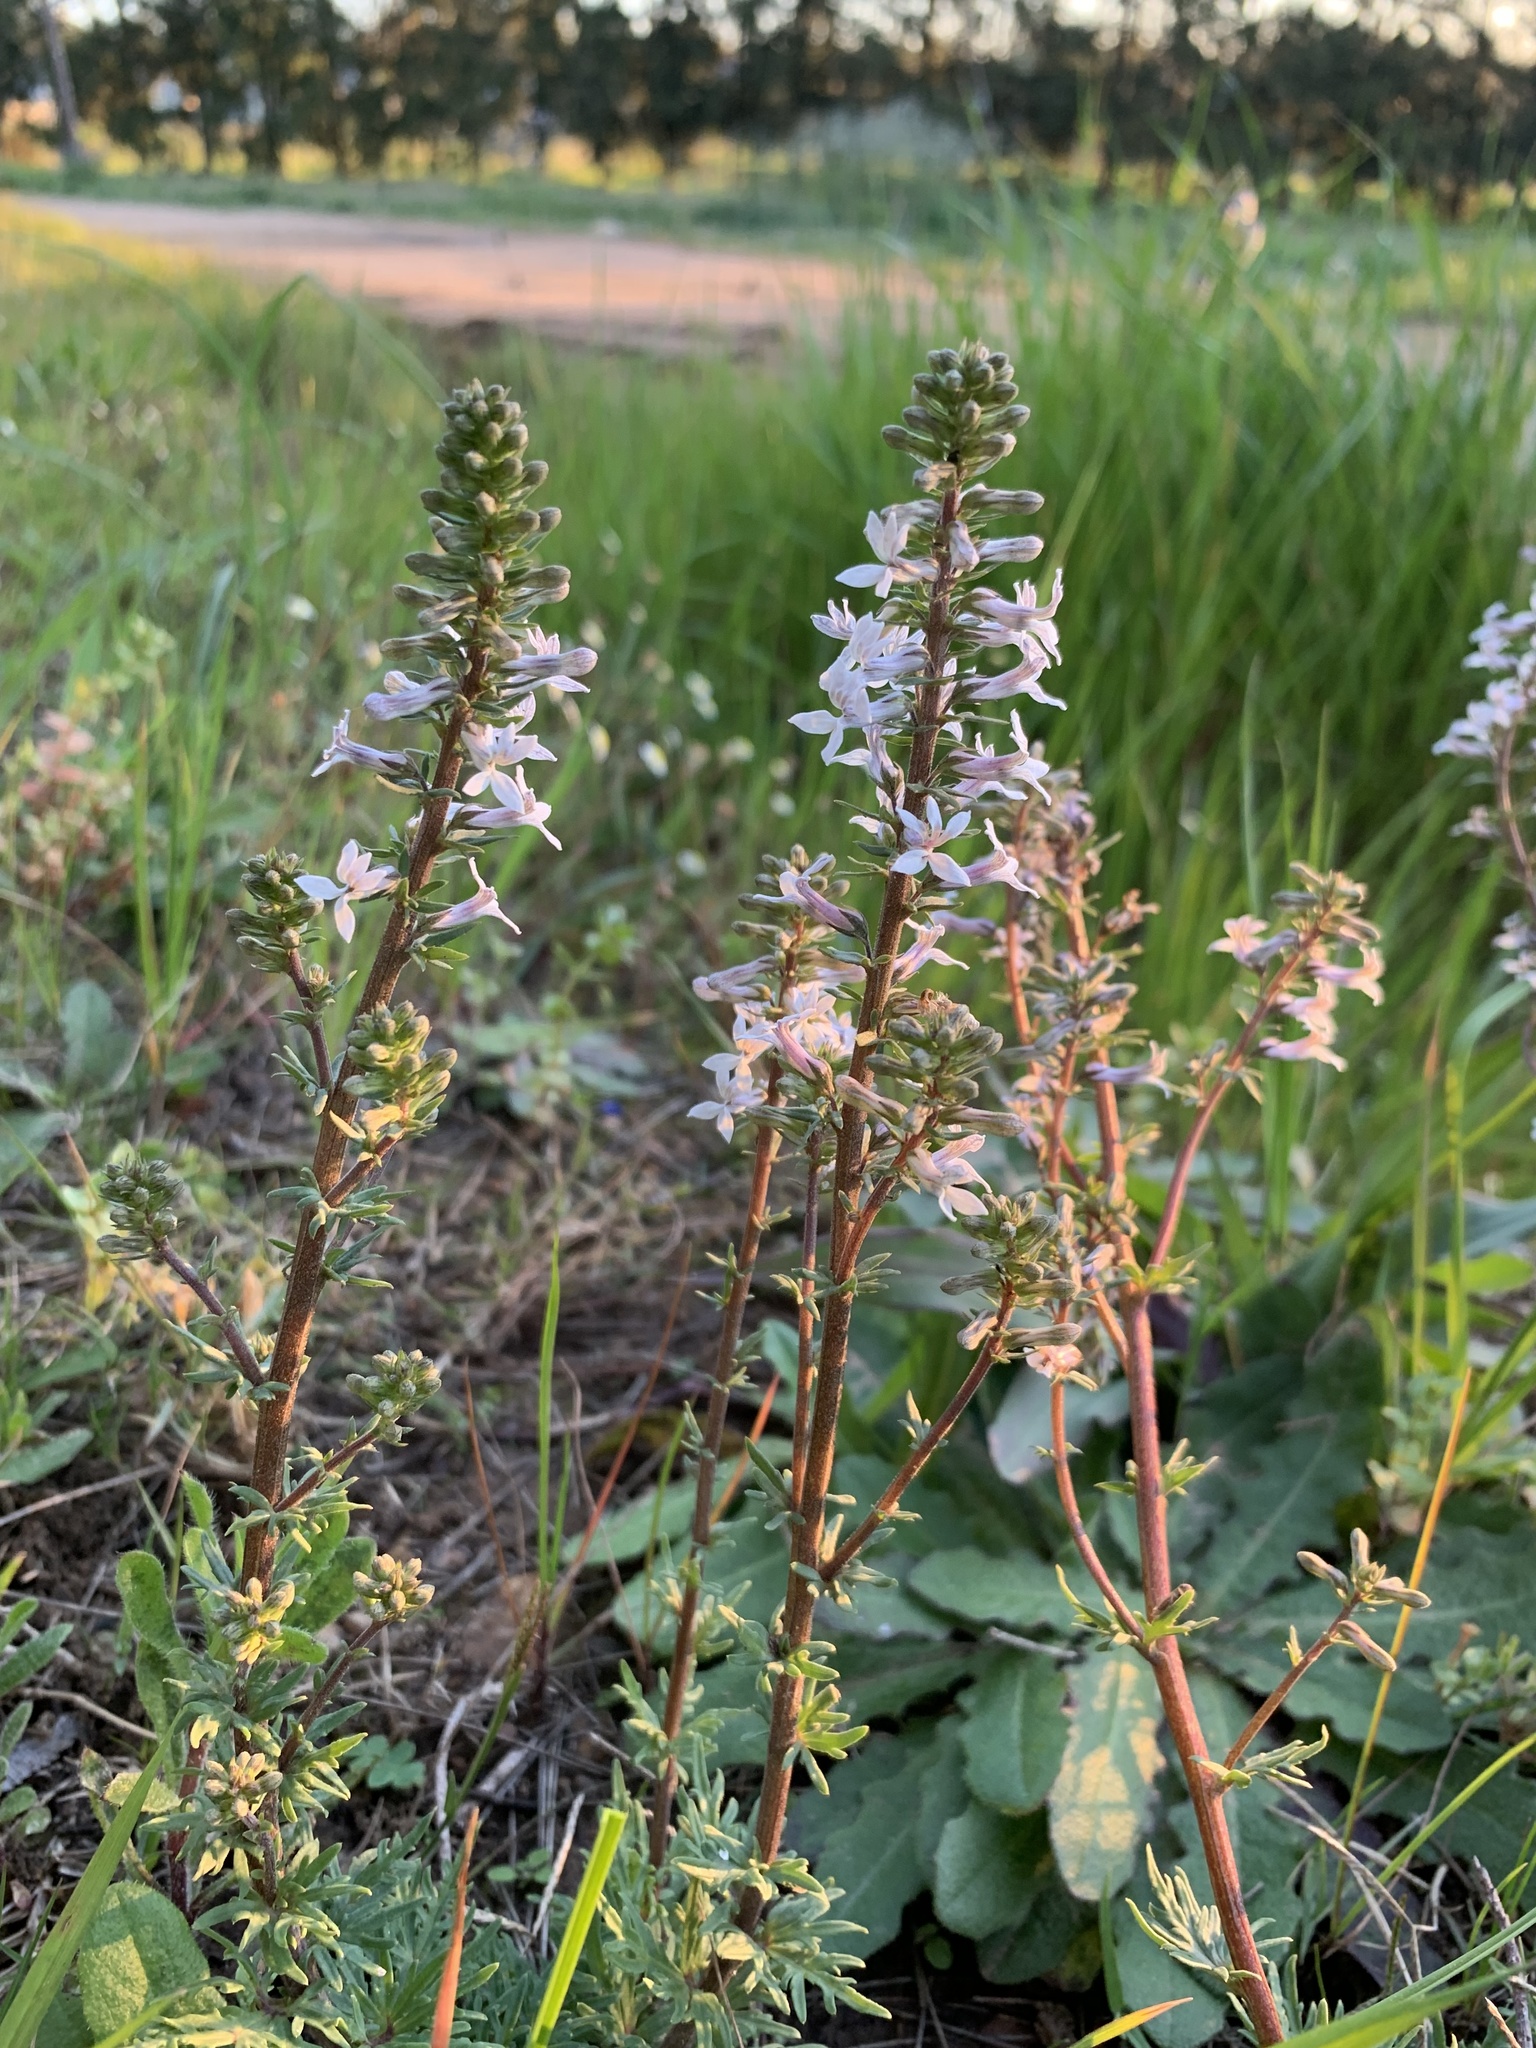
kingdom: Plantae
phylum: Tracheophyta
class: Magnoliopsida
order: Asterales
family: Campanulaceae
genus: Cyphia
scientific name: Cyphia bulbosa
